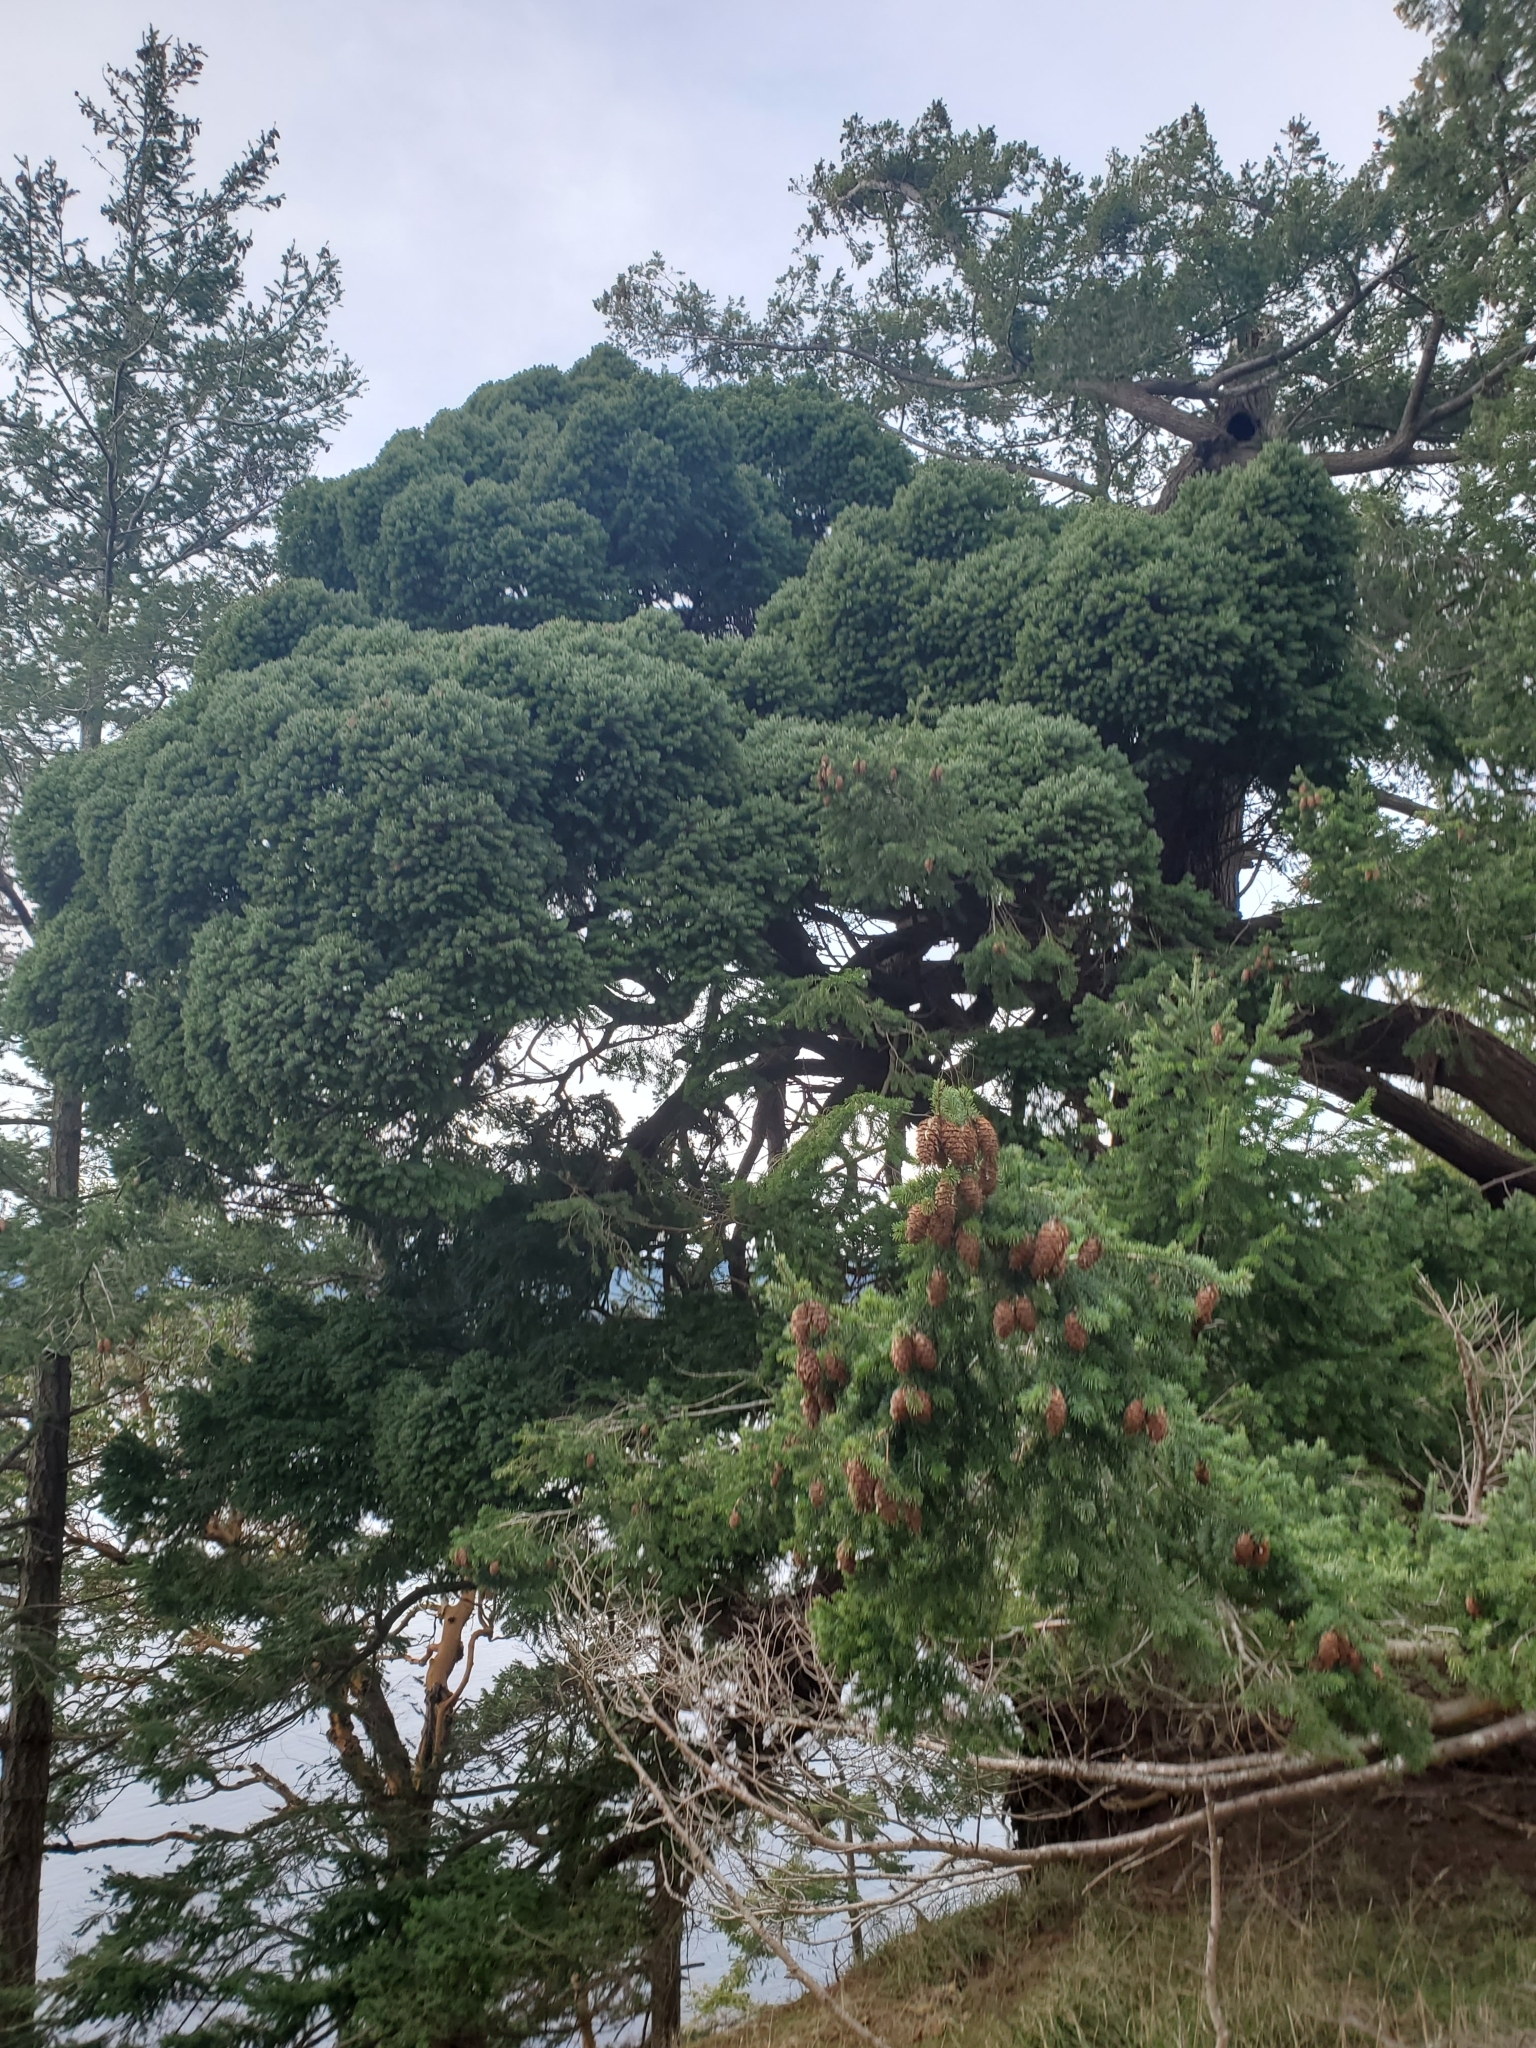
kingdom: Plantae
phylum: Tracheophyta
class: Magnoliopsida
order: Santalales
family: Viscaceae
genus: Arceuthobium
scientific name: Arceuthobium douglasii
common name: Douglas' dwarf mistletoe
